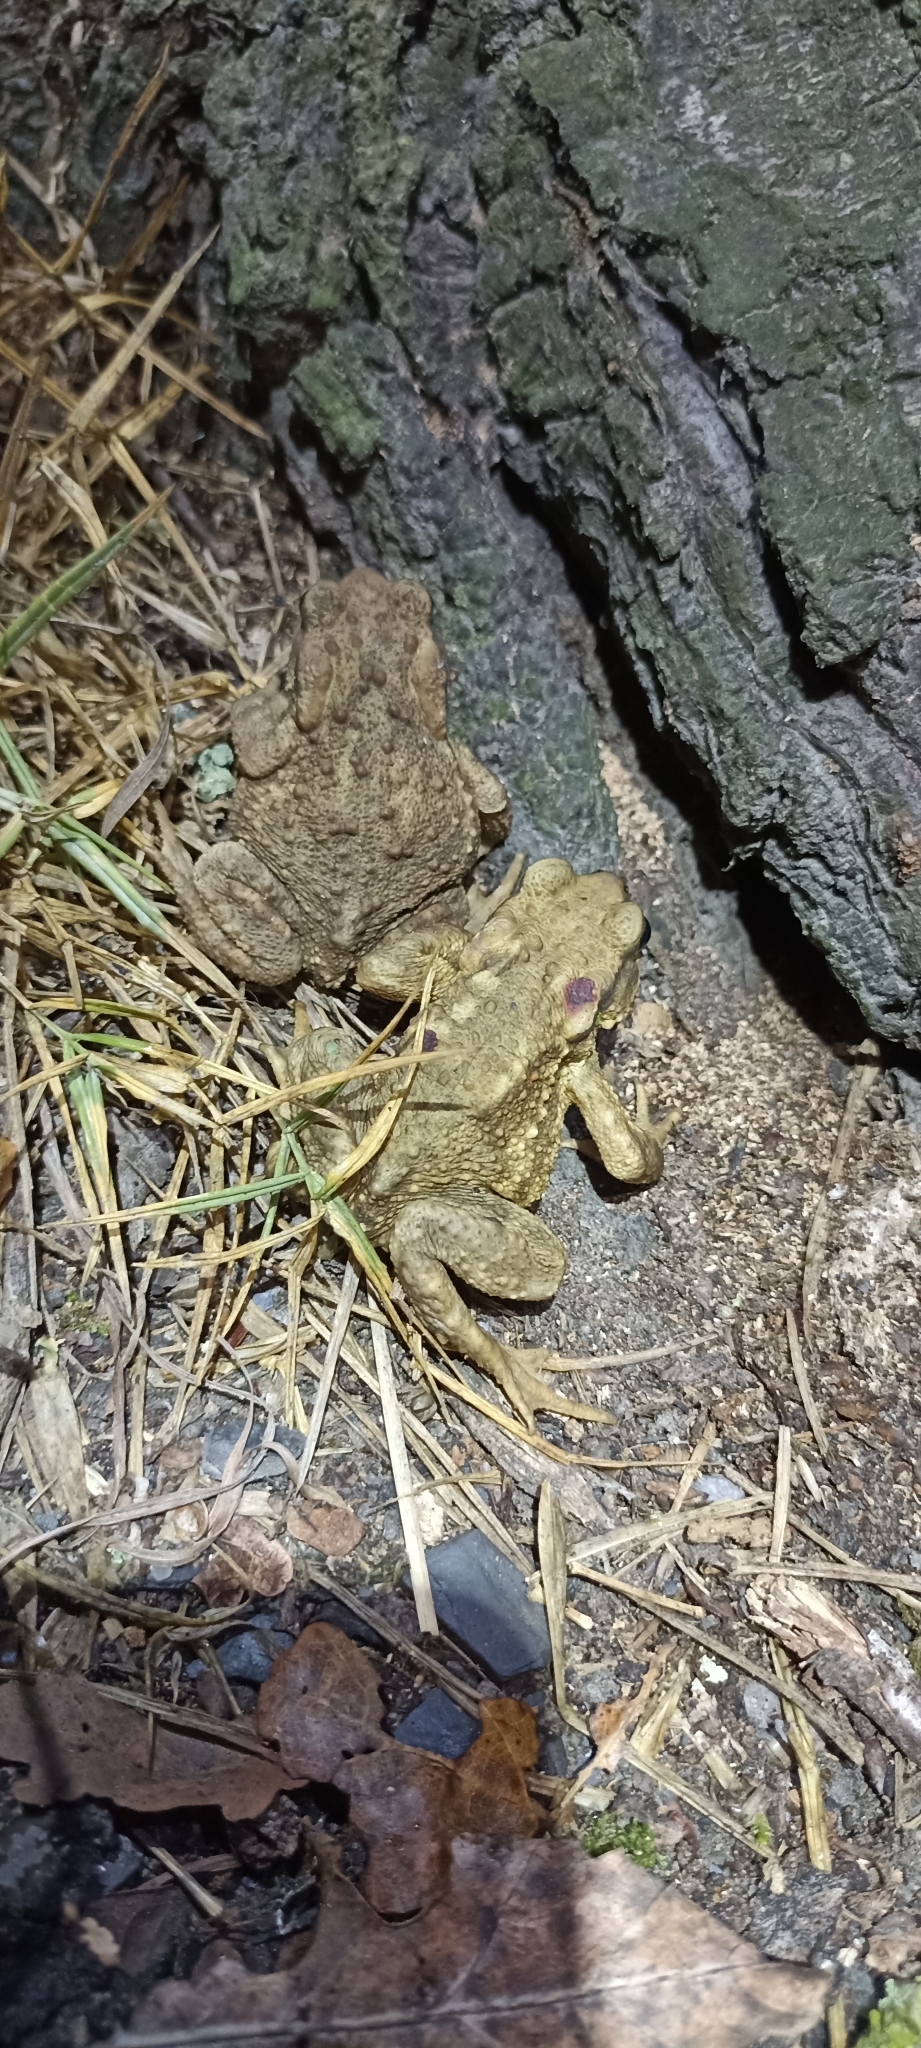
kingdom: Animalia
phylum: Chordata
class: Amphibia
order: Anura
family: Bufonidae
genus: Bufo
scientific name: Bufo spinosus
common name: Western common toad
